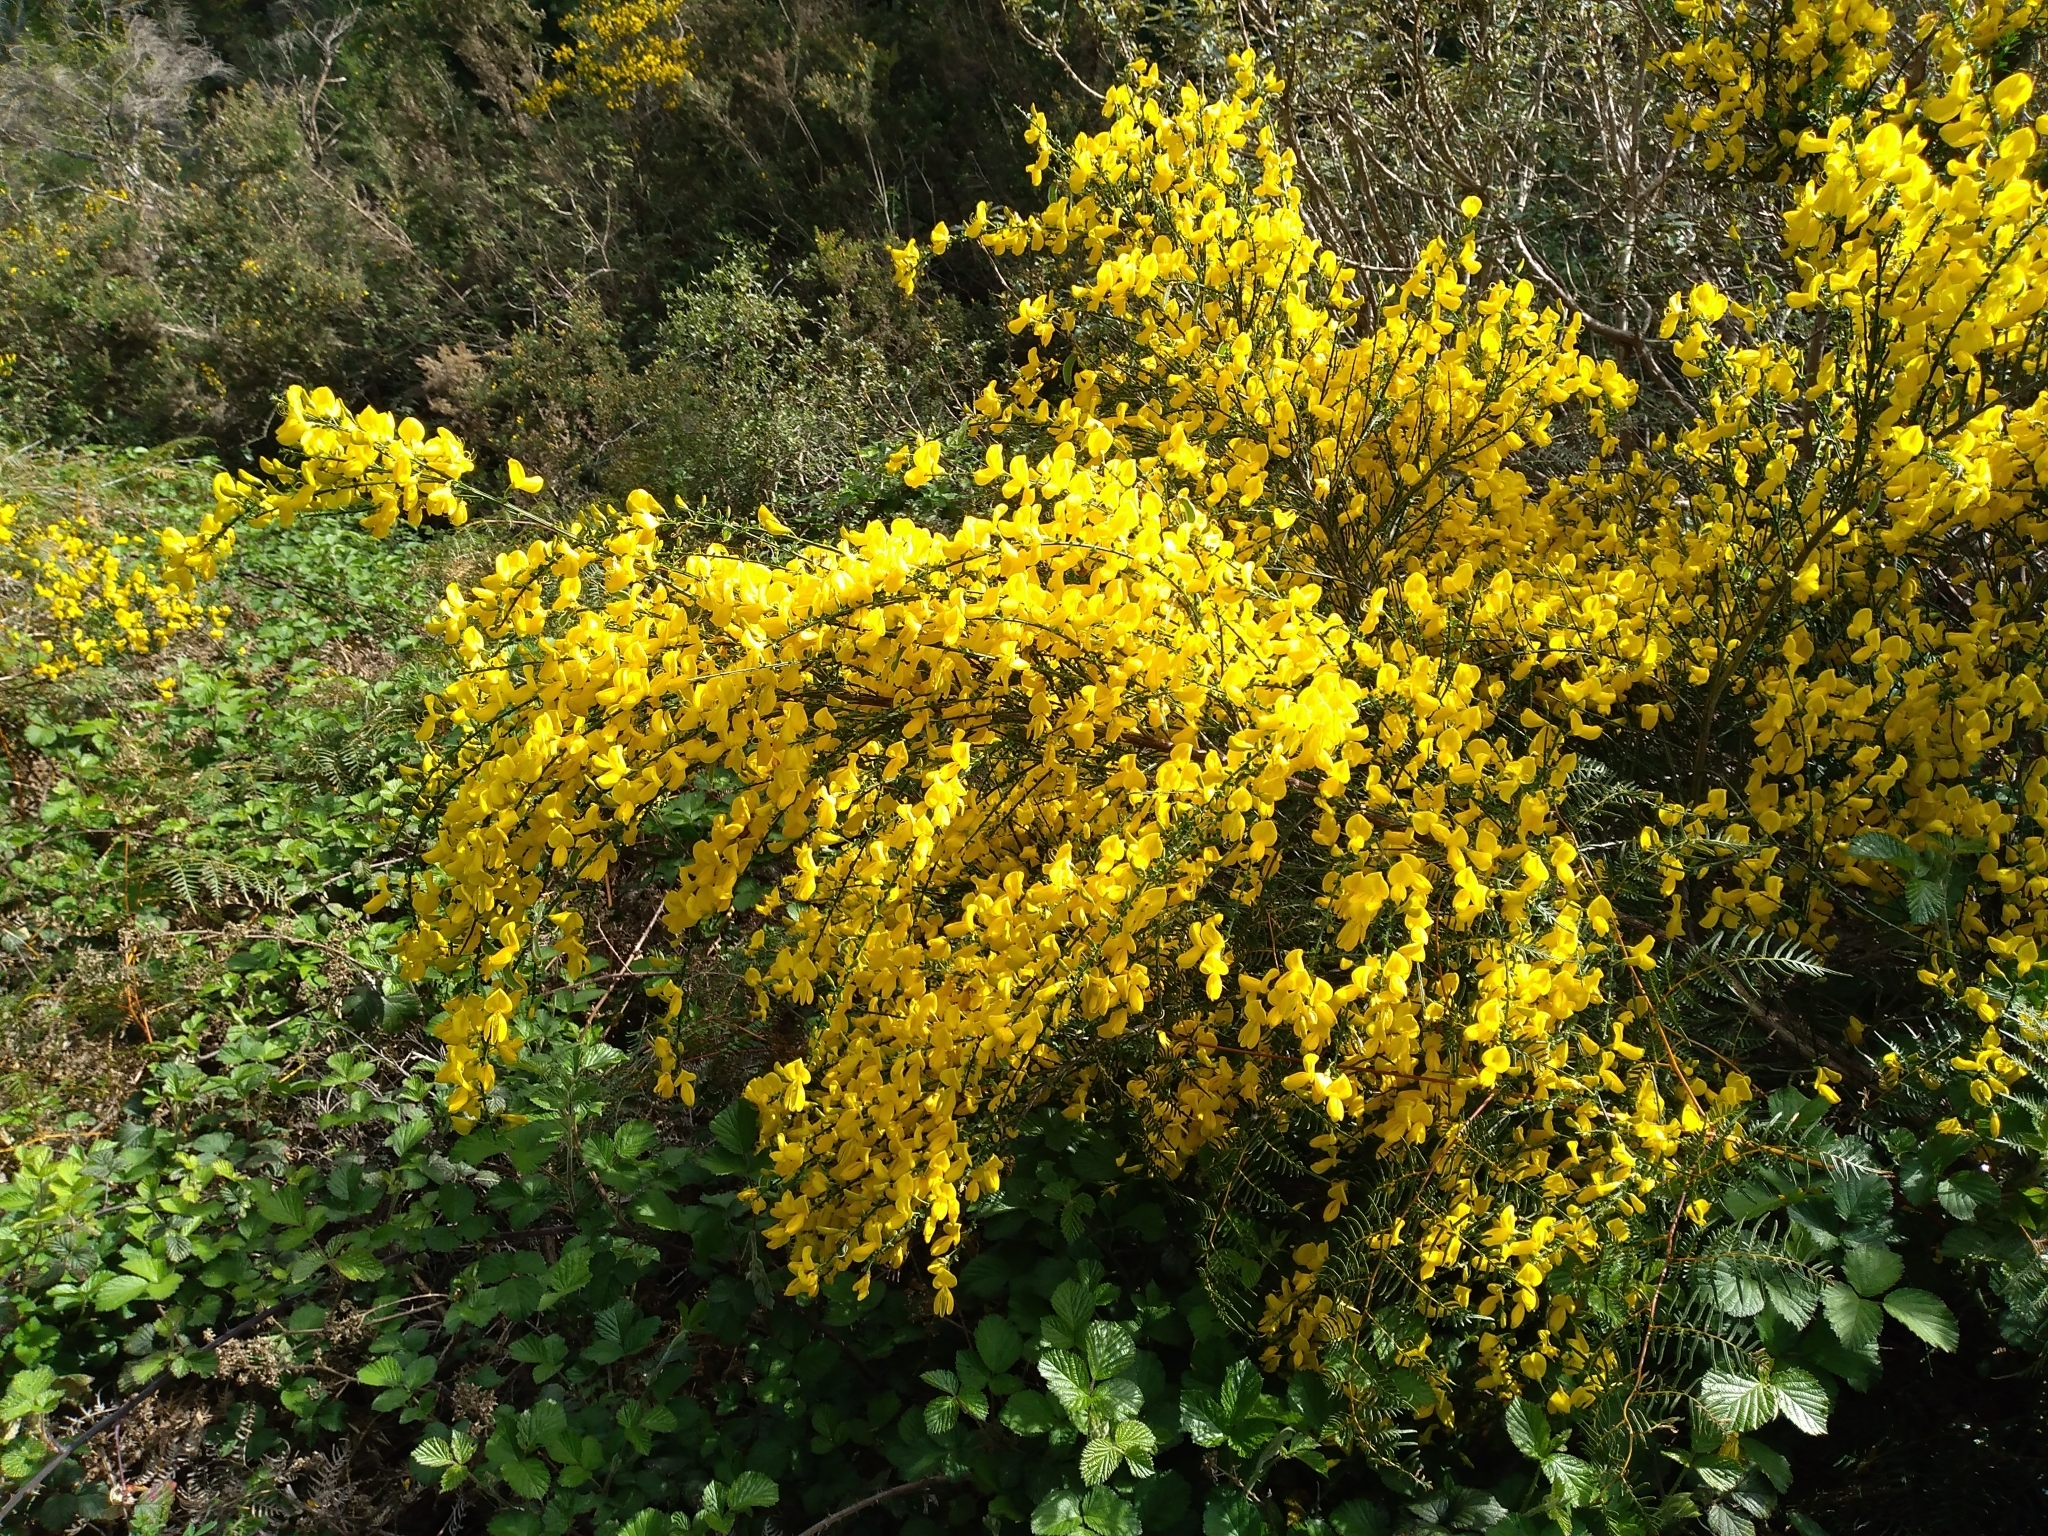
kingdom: Plantae
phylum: Tracheophyta
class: Magnoliopsida
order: Fabales
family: Fabaceae
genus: Cytisus
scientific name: Cytisus scoparius
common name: Scotch broom
